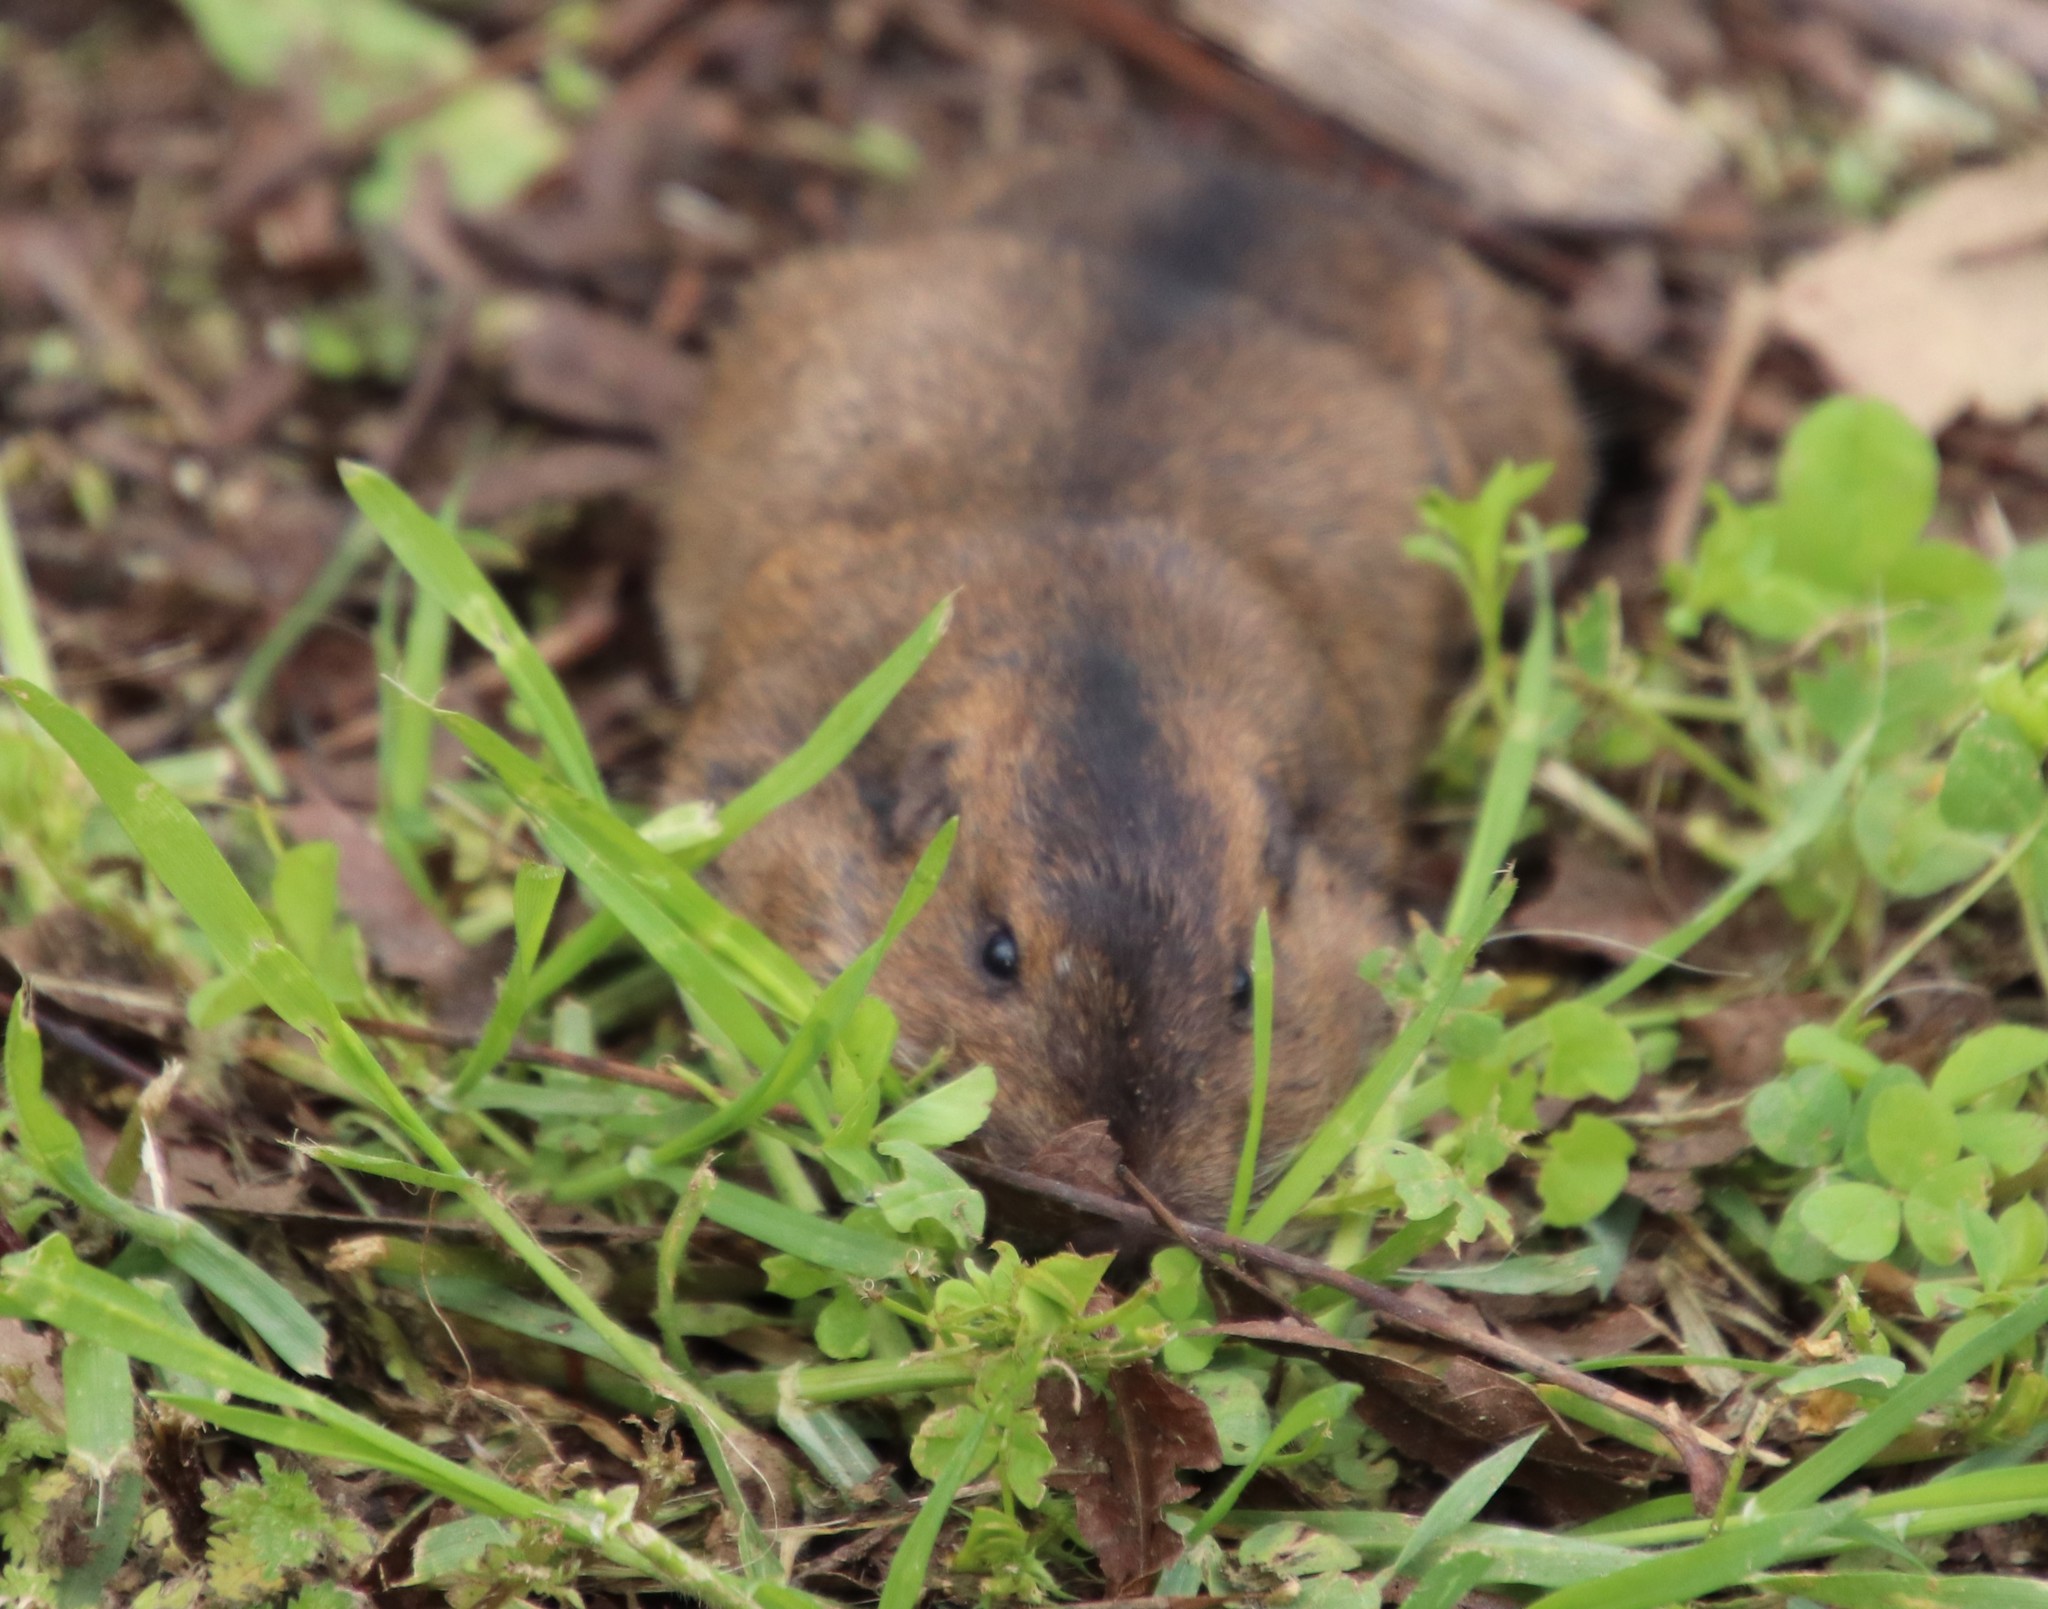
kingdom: Animalia
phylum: Chordata
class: Mammalia
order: Rodentia
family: Geomyidae
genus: Thomomys
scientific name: Thomomys bottae
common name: Botta's pocket gopher
